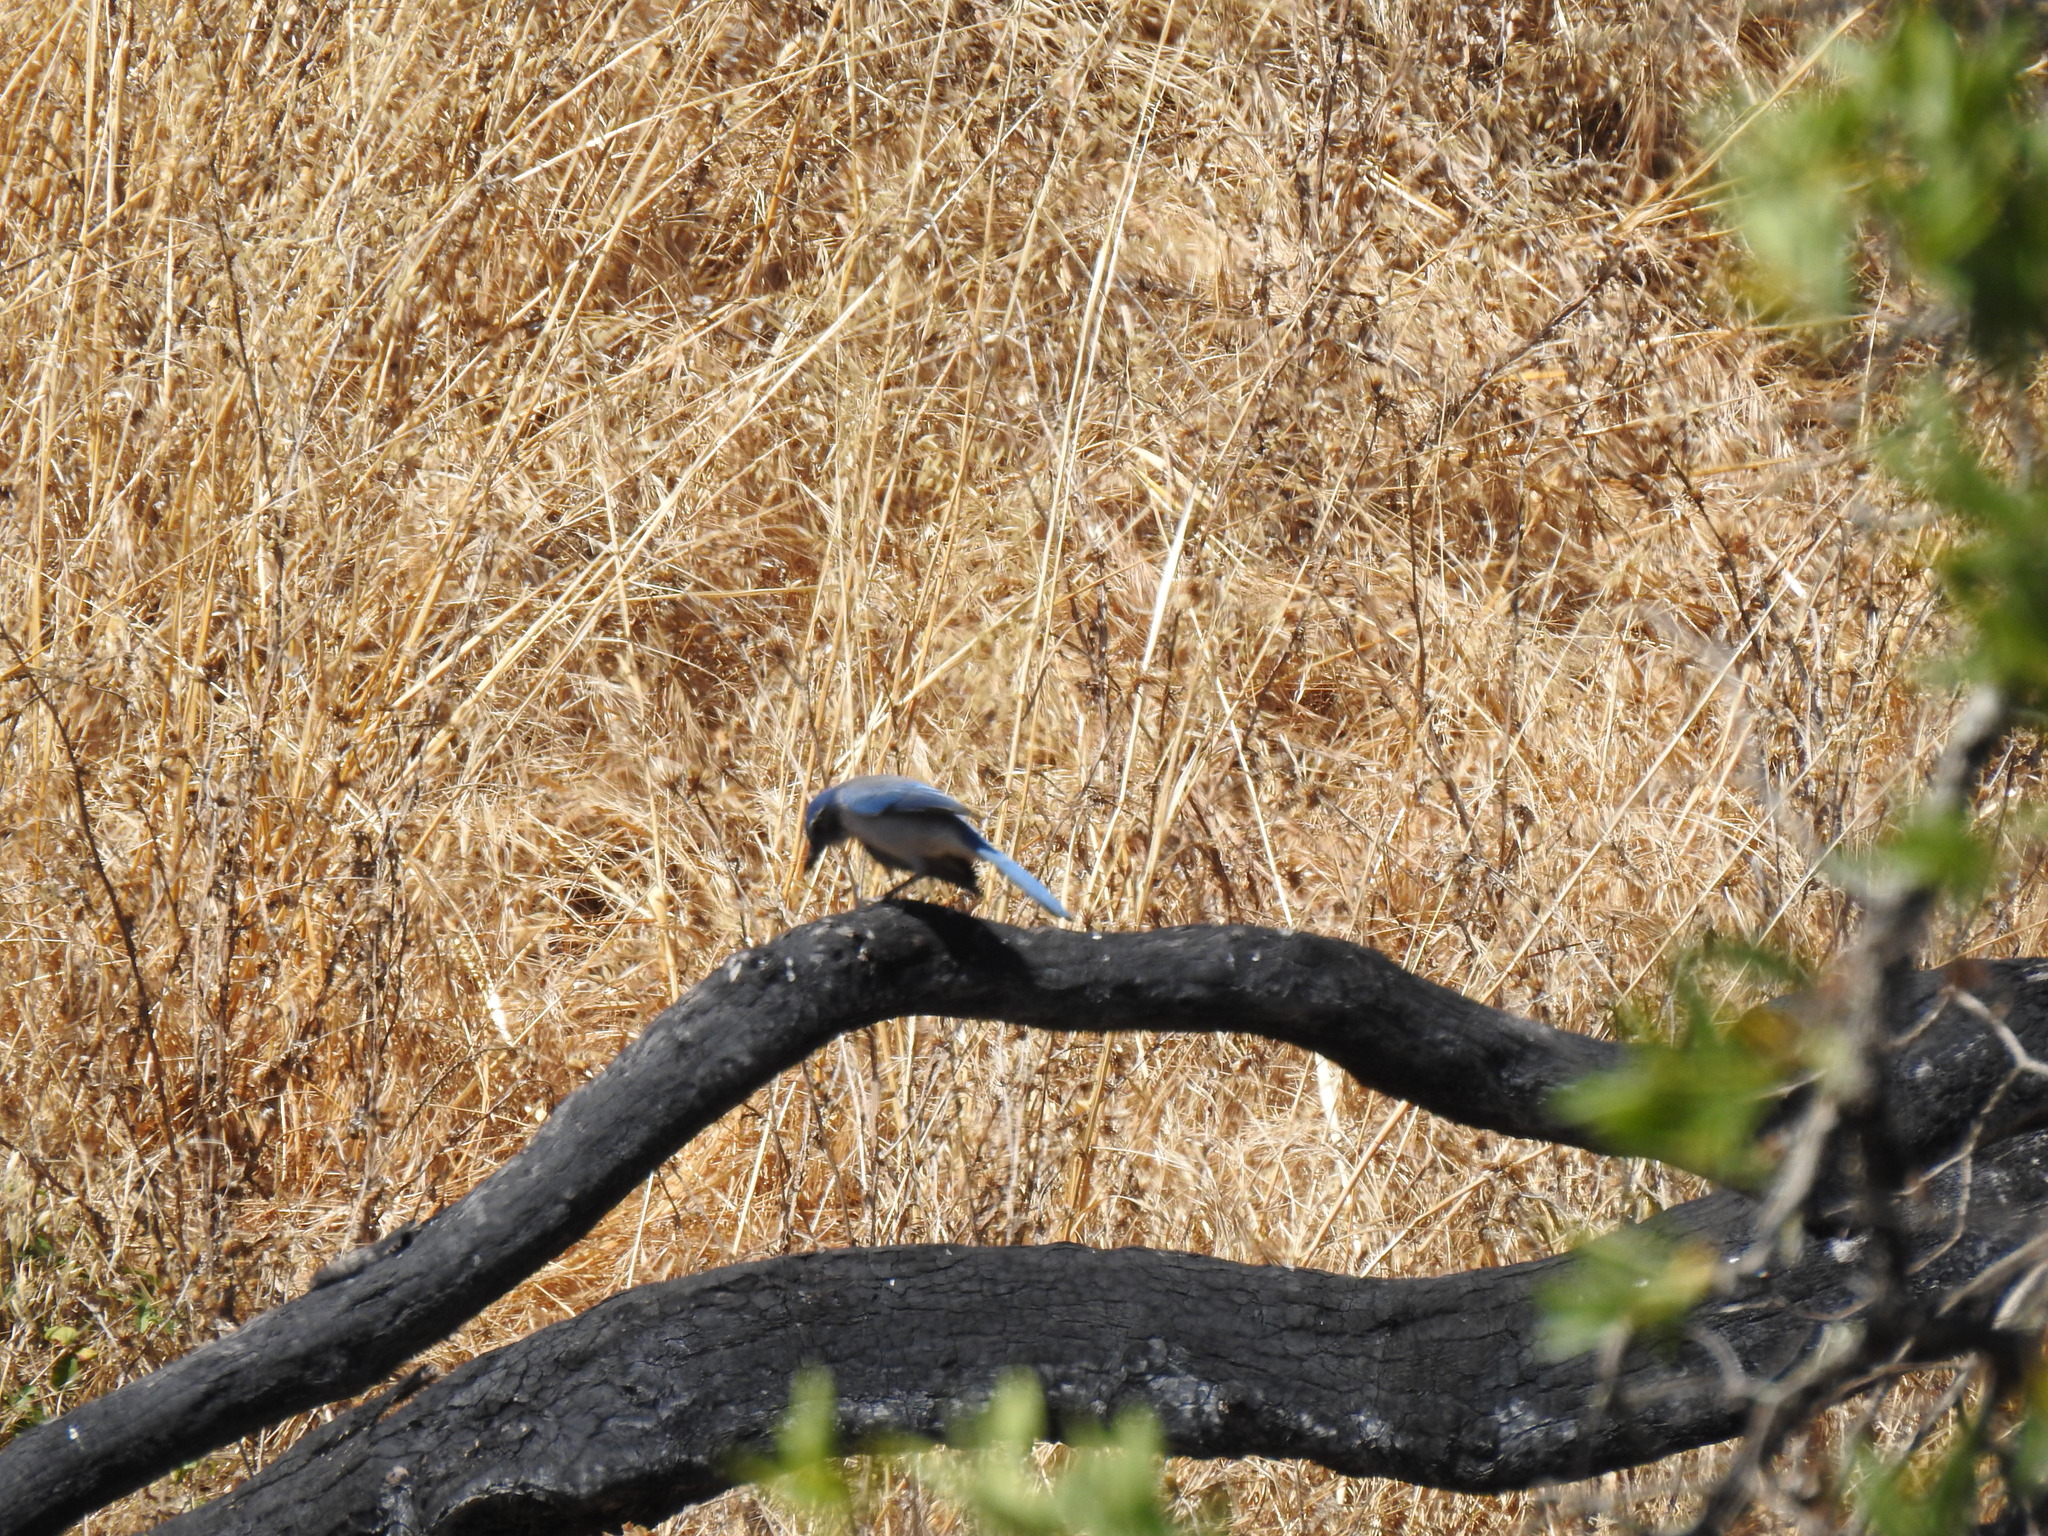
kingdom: Animalia
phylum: Chordata
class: Aves
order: Passeriformes
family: Corvidae
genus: Aphelocoma
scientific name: Aphelocoma californica
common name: California scrub-jay
